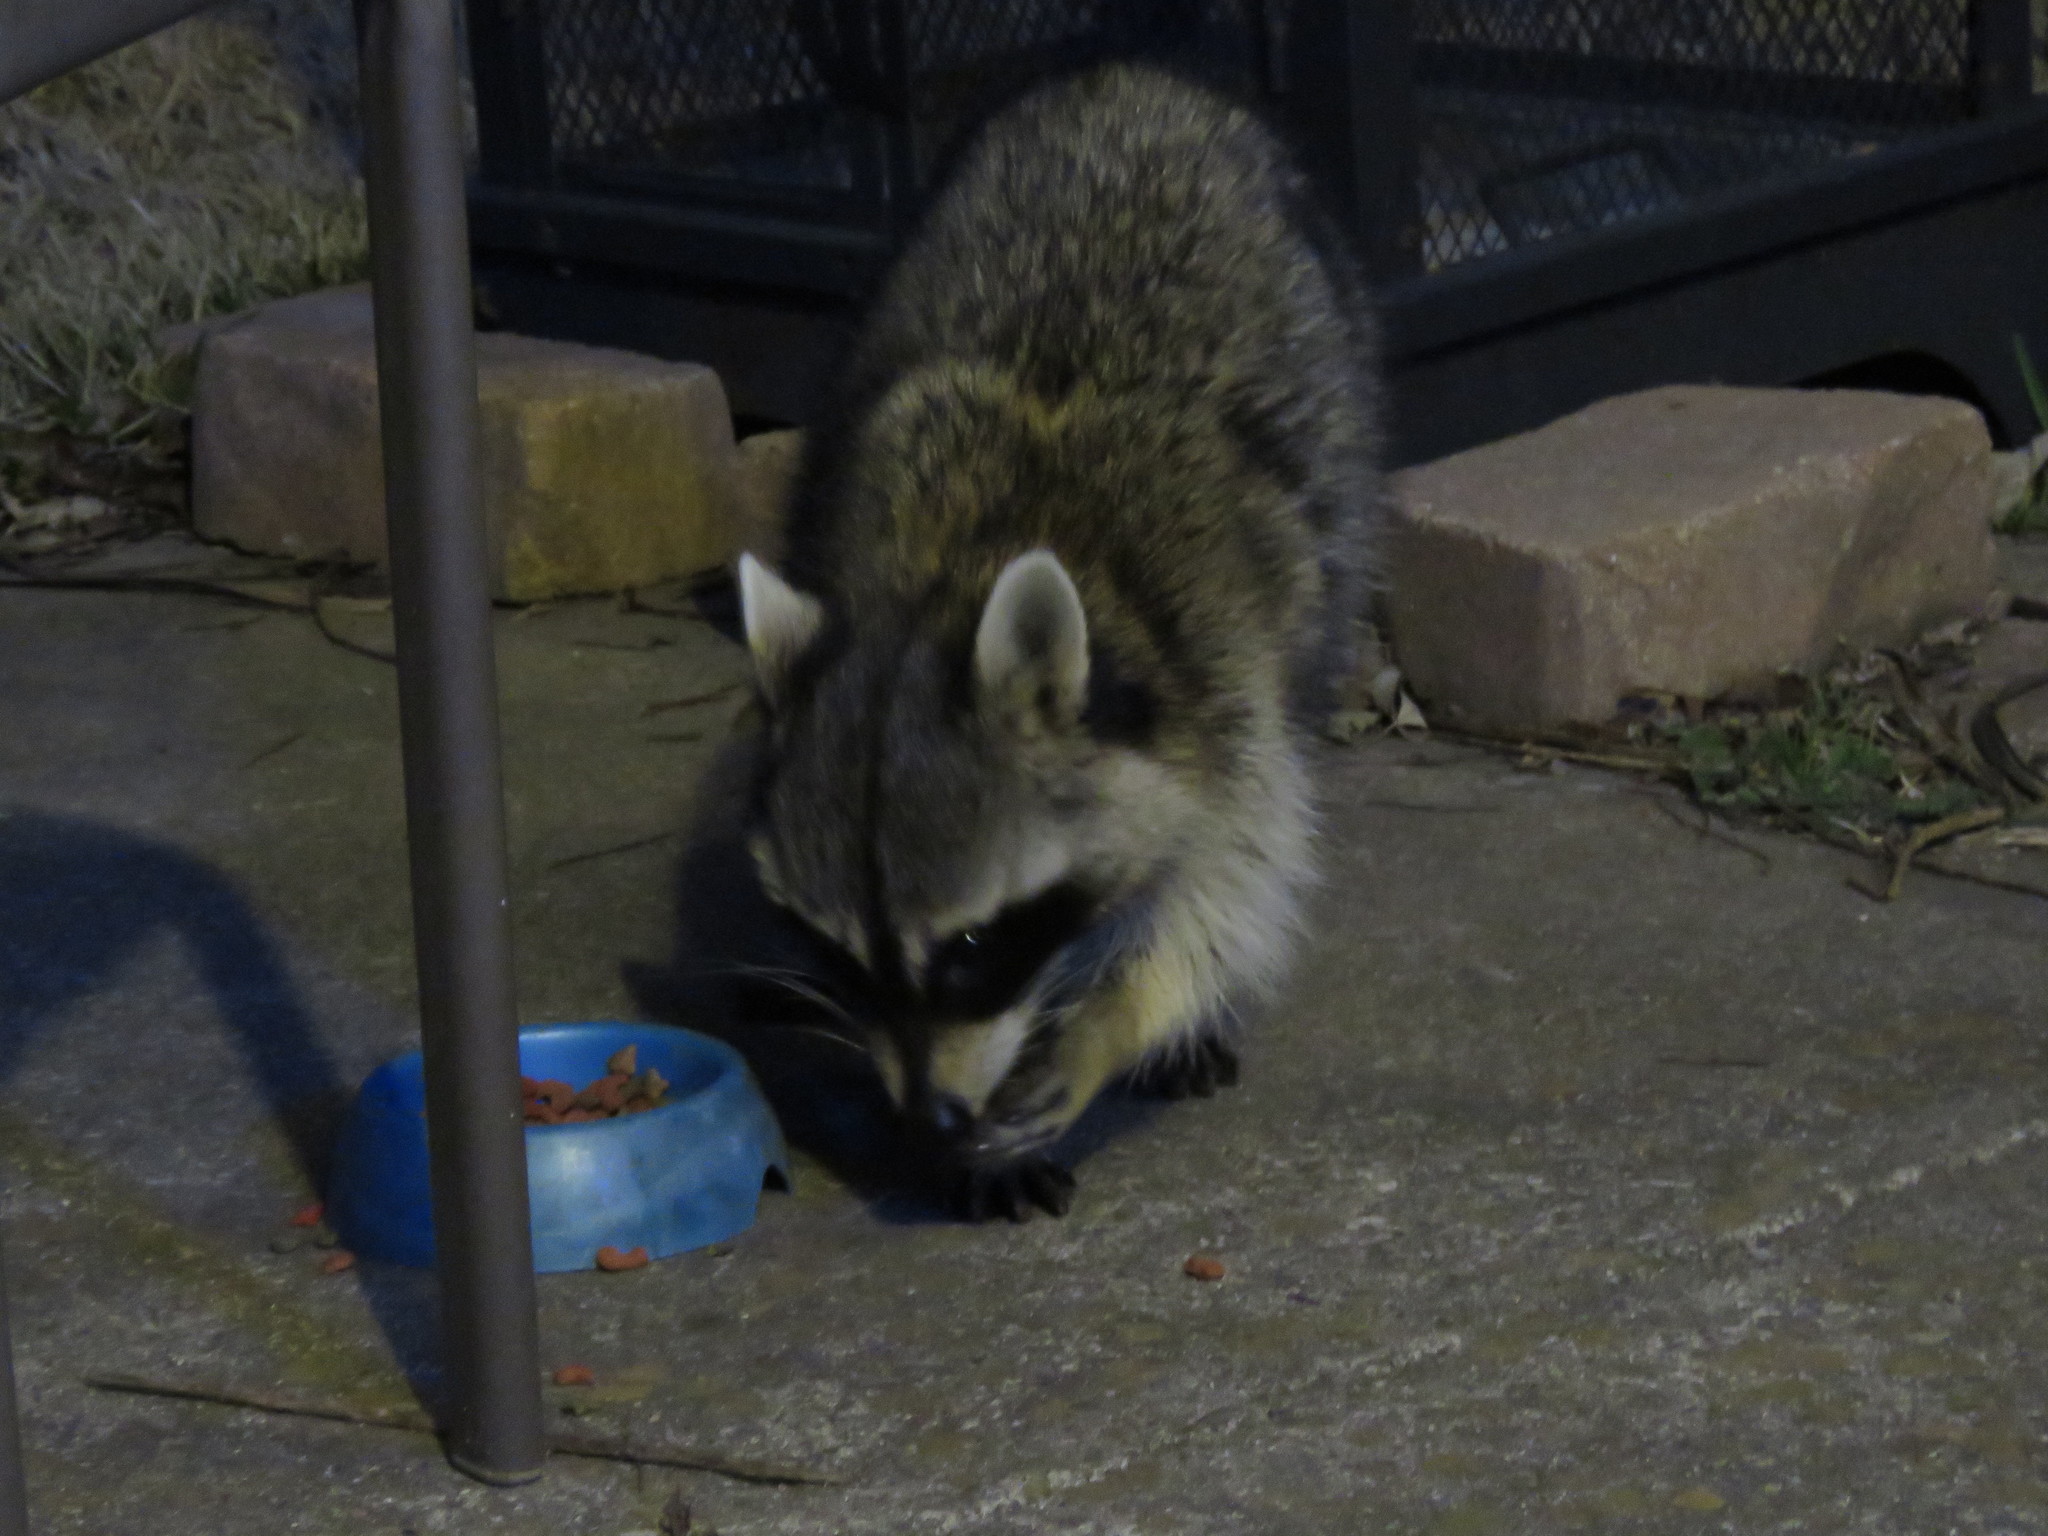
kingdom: Animalia
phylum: Chordata
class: Mammalia
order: Carnivora
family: Procyonidae
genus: Procyon
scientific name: Procyon lotor
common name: Raccoon
